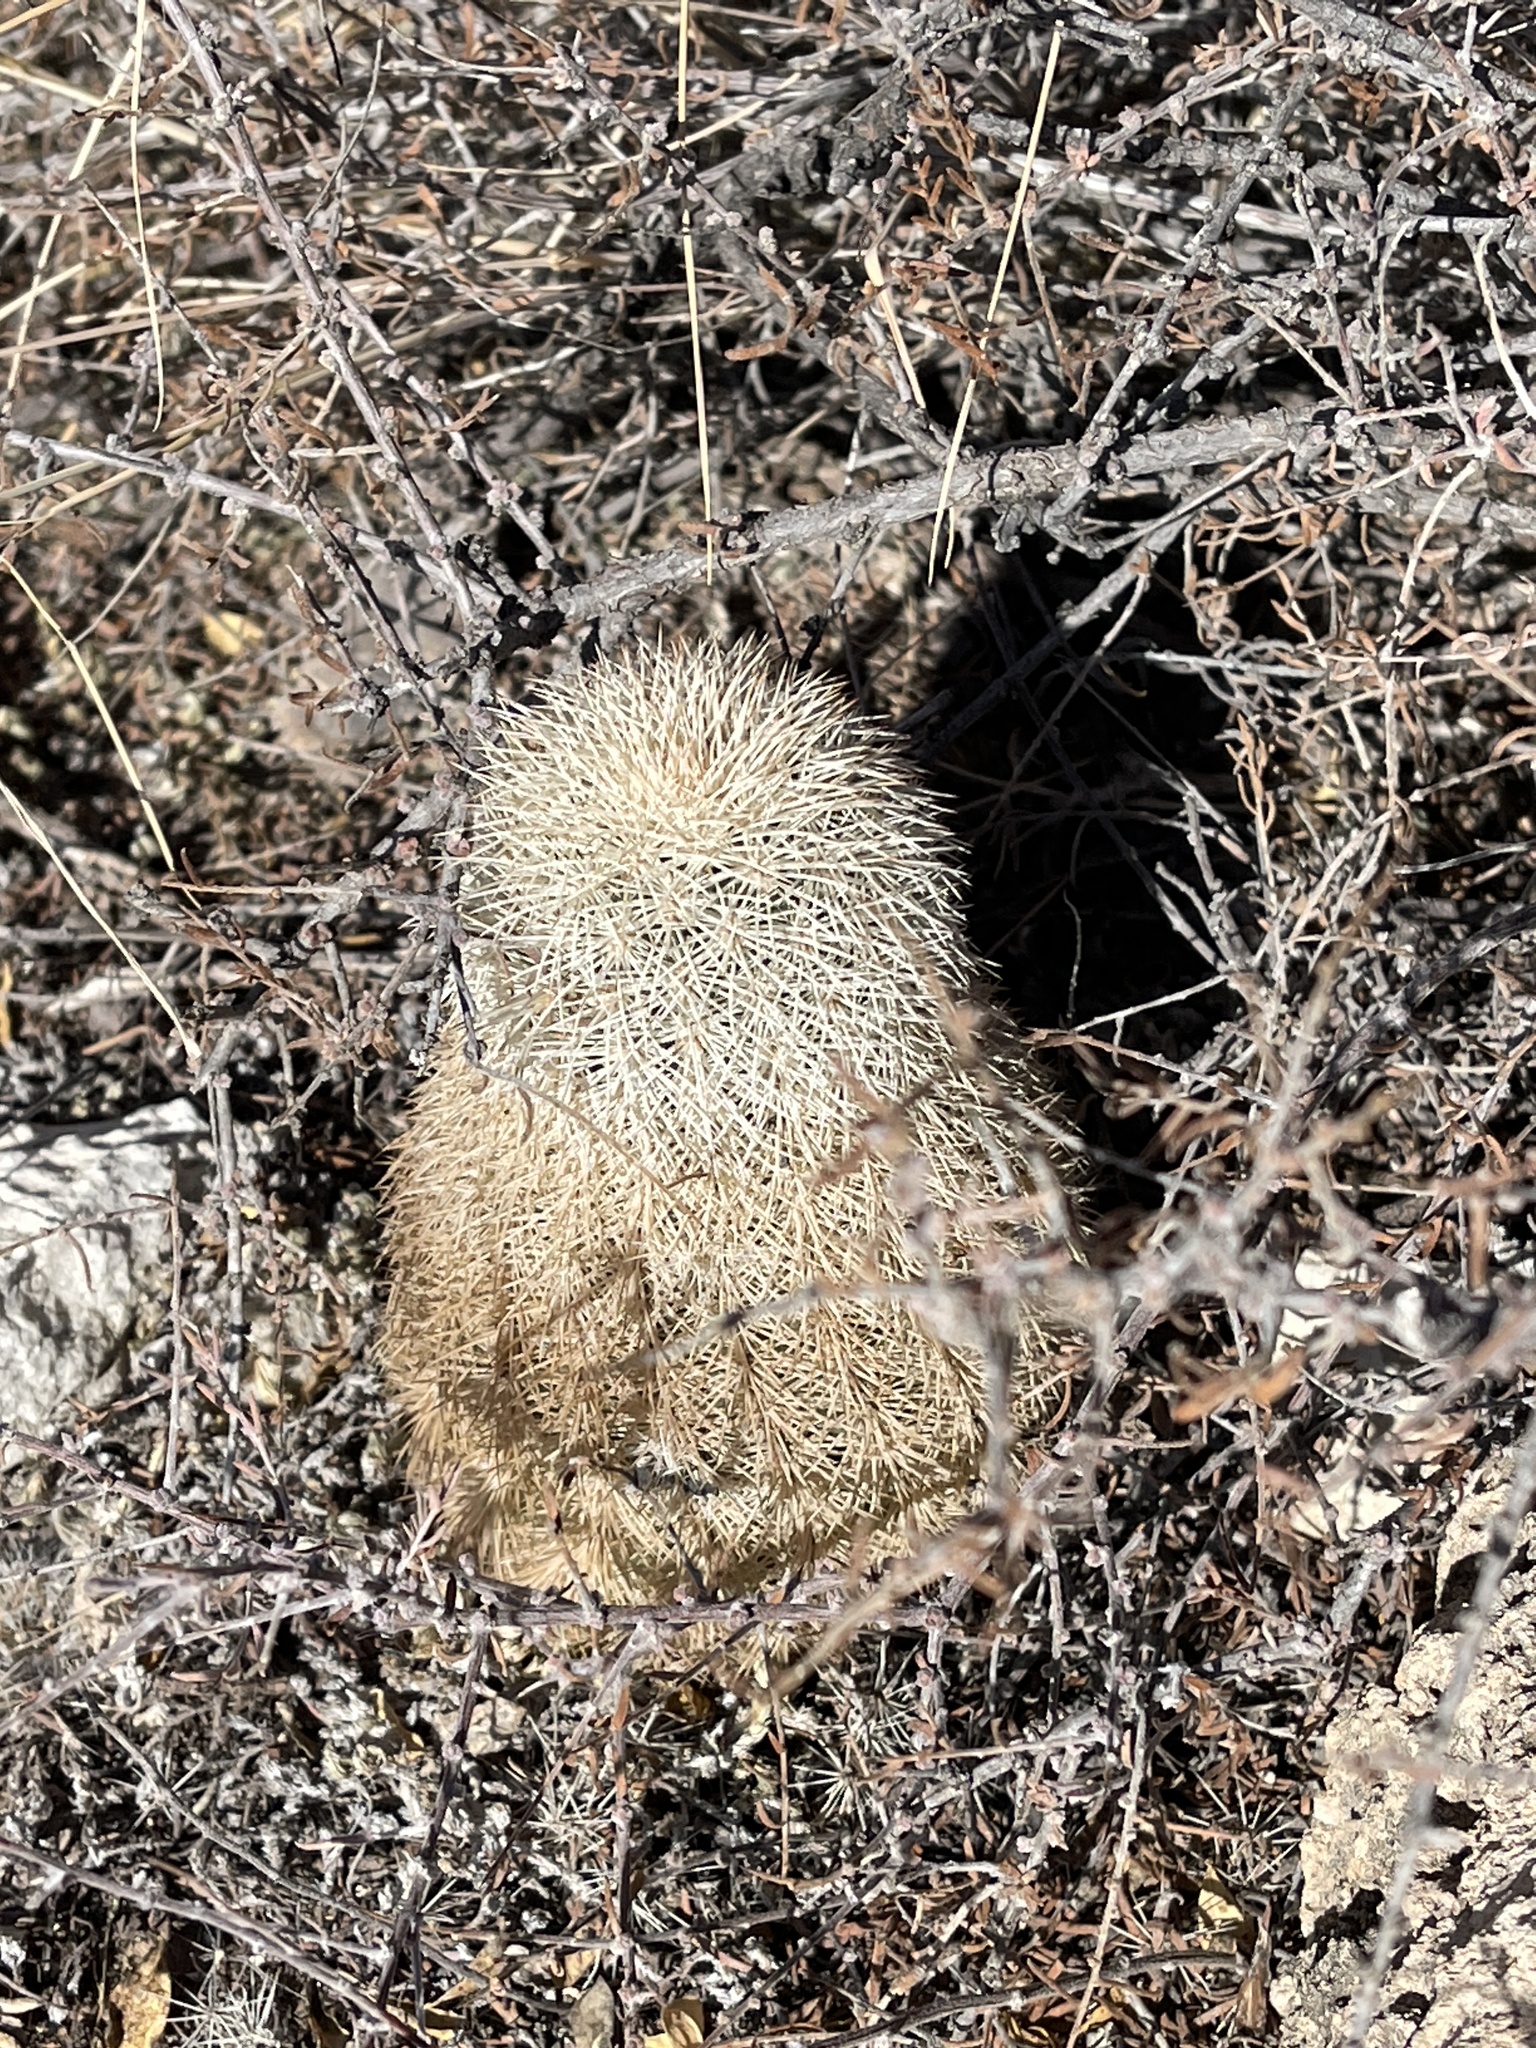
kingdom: Plantae
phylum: Tracheophyta
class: Magnoliopsida
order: Caryophyllales
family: Cactaceae
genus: Echinocereus
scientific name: Echinocereus dasyacanthus
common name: Spiny hedgehog cactus
